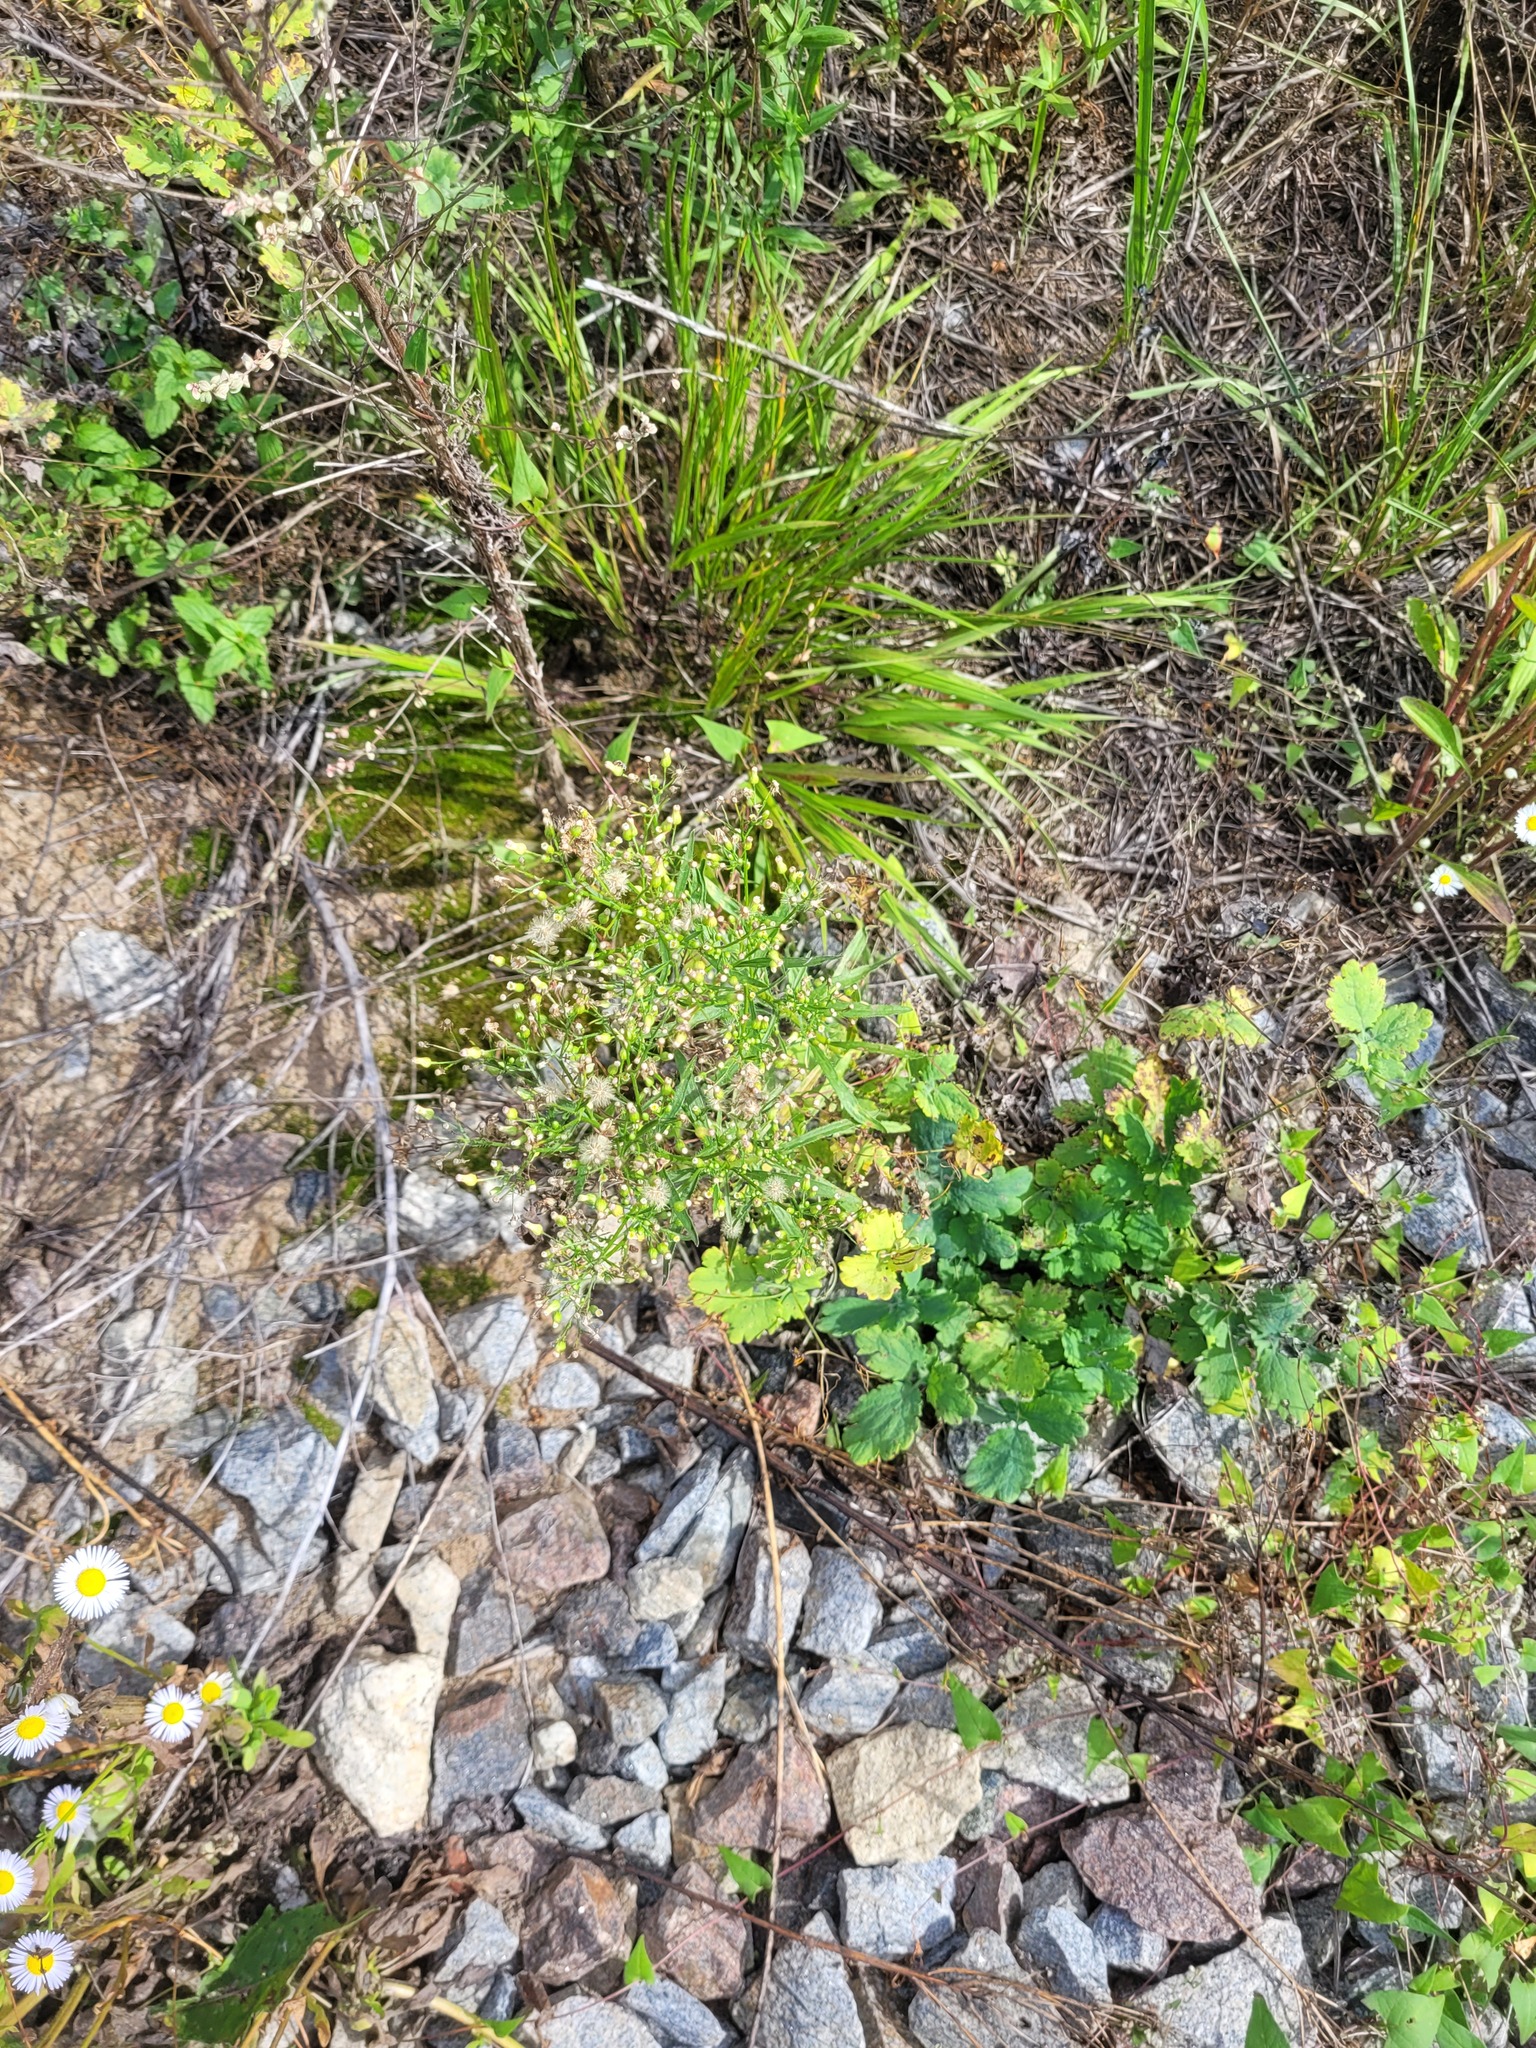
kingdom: Plantae
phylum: Tracheophyta
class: Magnoliopsida
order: Asterales
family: Asteraceae
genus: Erigeron
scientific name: Erigeron canadensis
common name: Canadian fleabane
